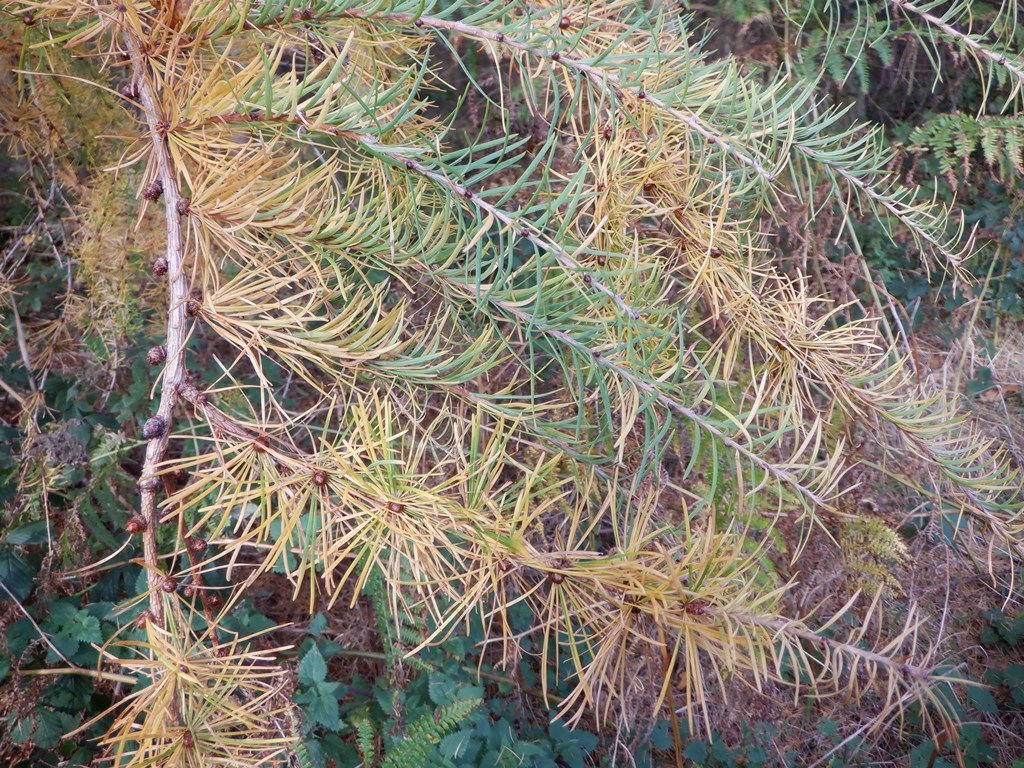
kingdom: Plantae
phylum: Tracheophyta
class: Pinopsida
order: Pinales
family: Pinaceae
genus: Larix
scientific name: Larix decidua
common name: European larch
